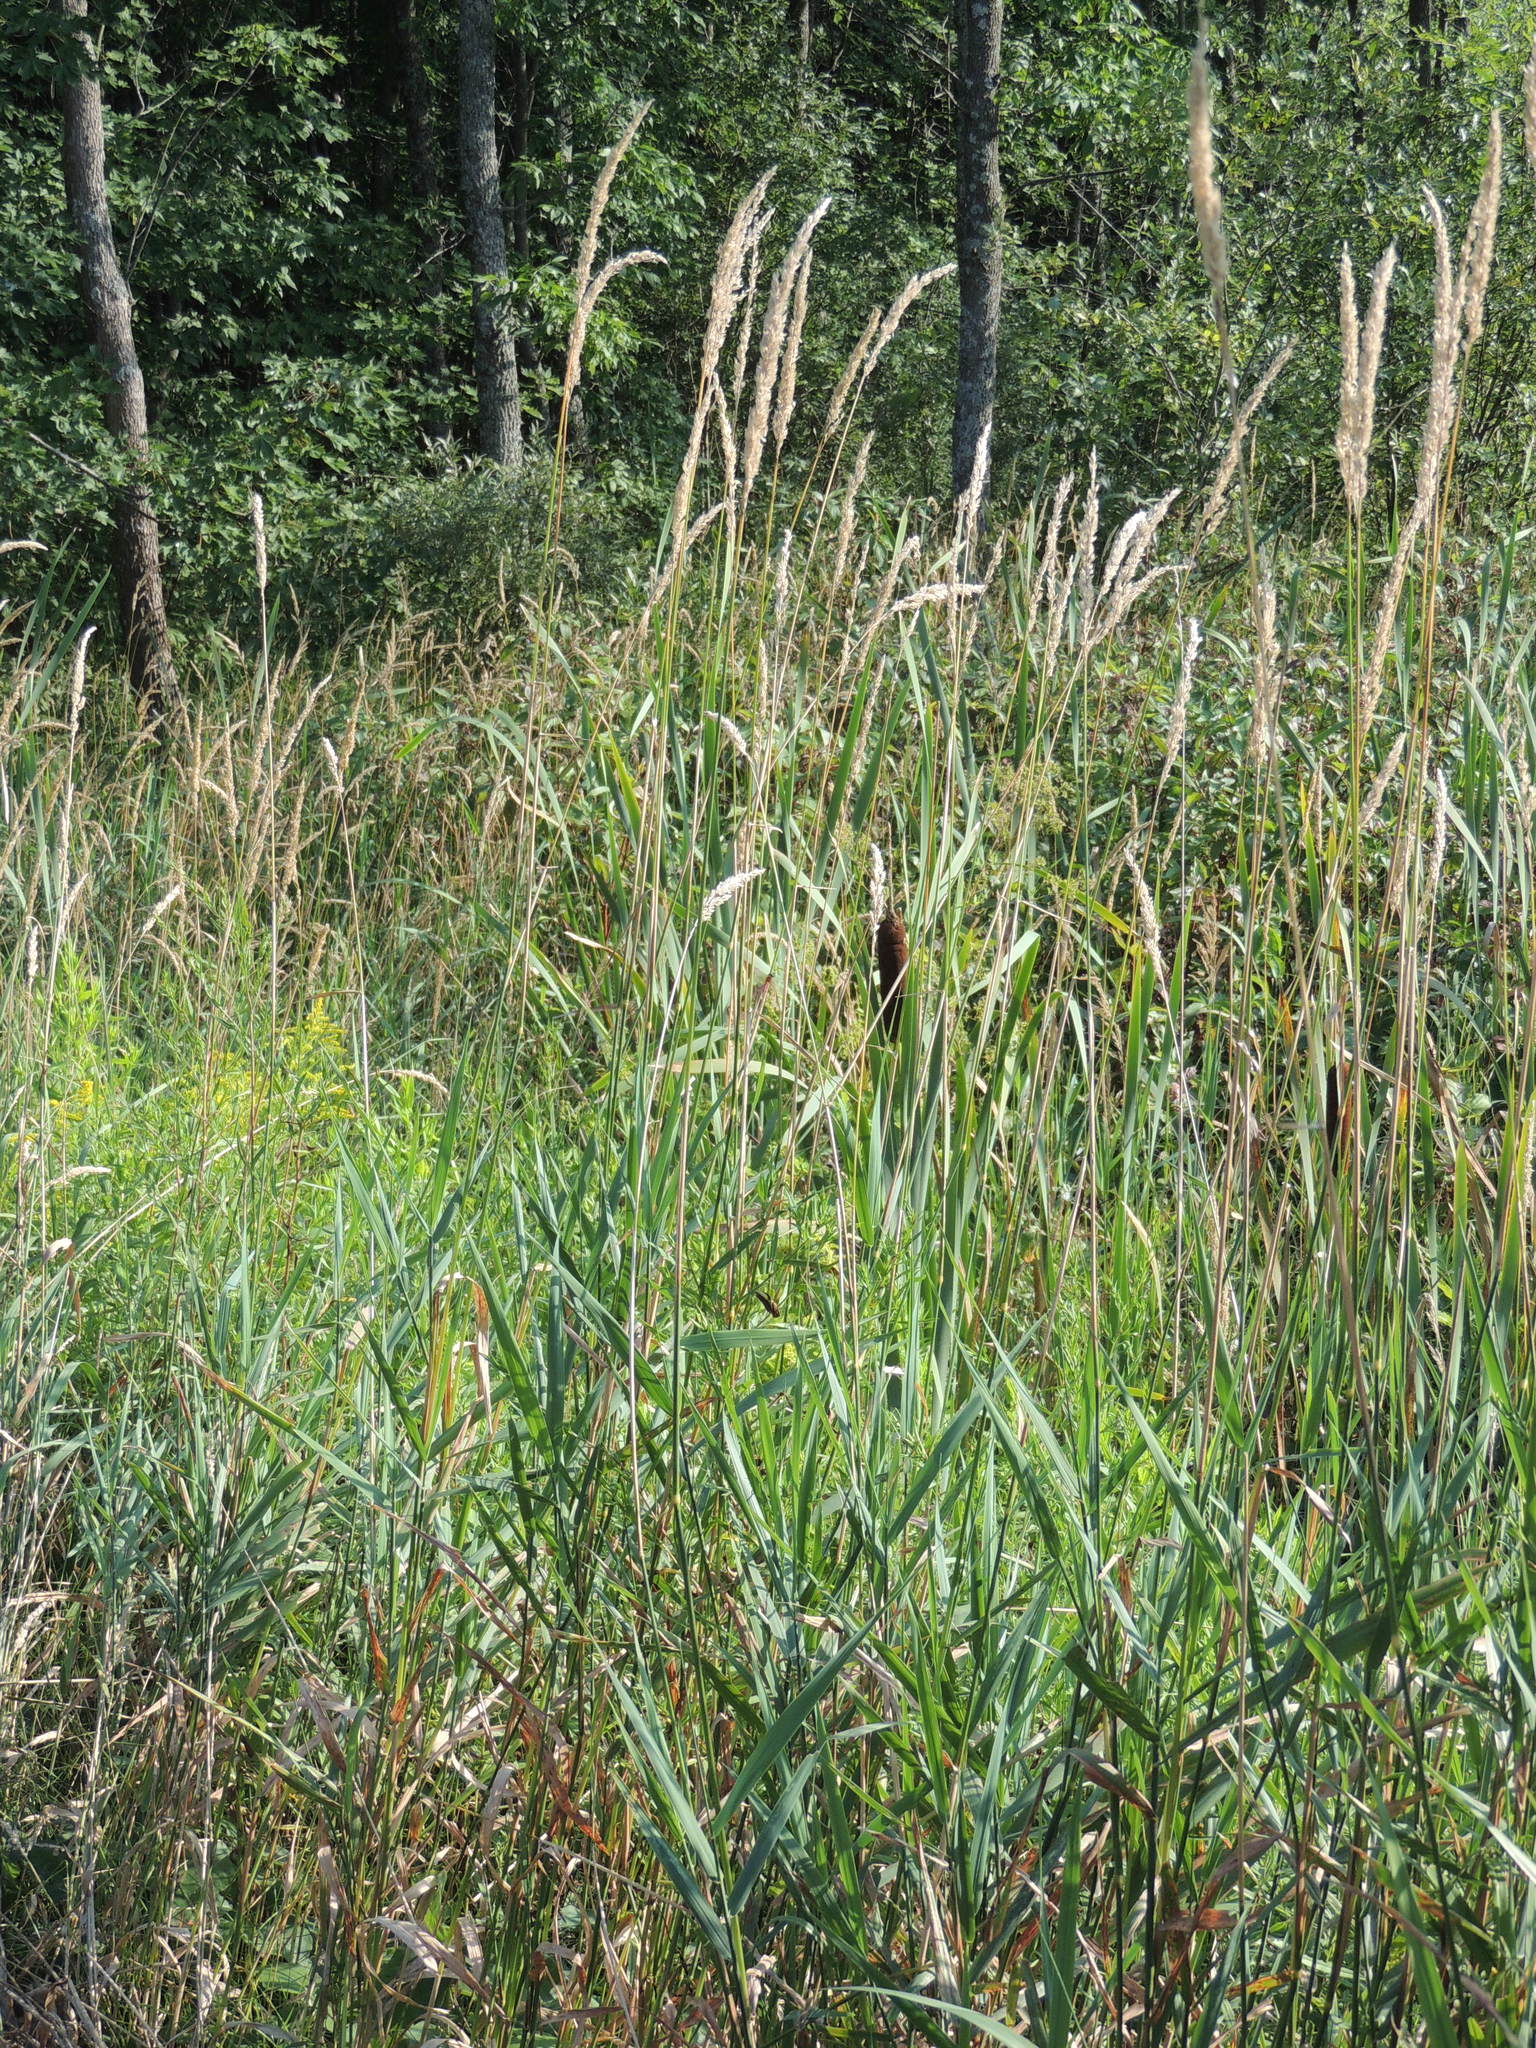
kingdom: Plantae
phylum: Tracheophyta
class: Liliopsida
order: Poales
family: Poaceae
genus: Phalaris
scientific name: Phalaris arundinacea
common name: Reed canary-grass
